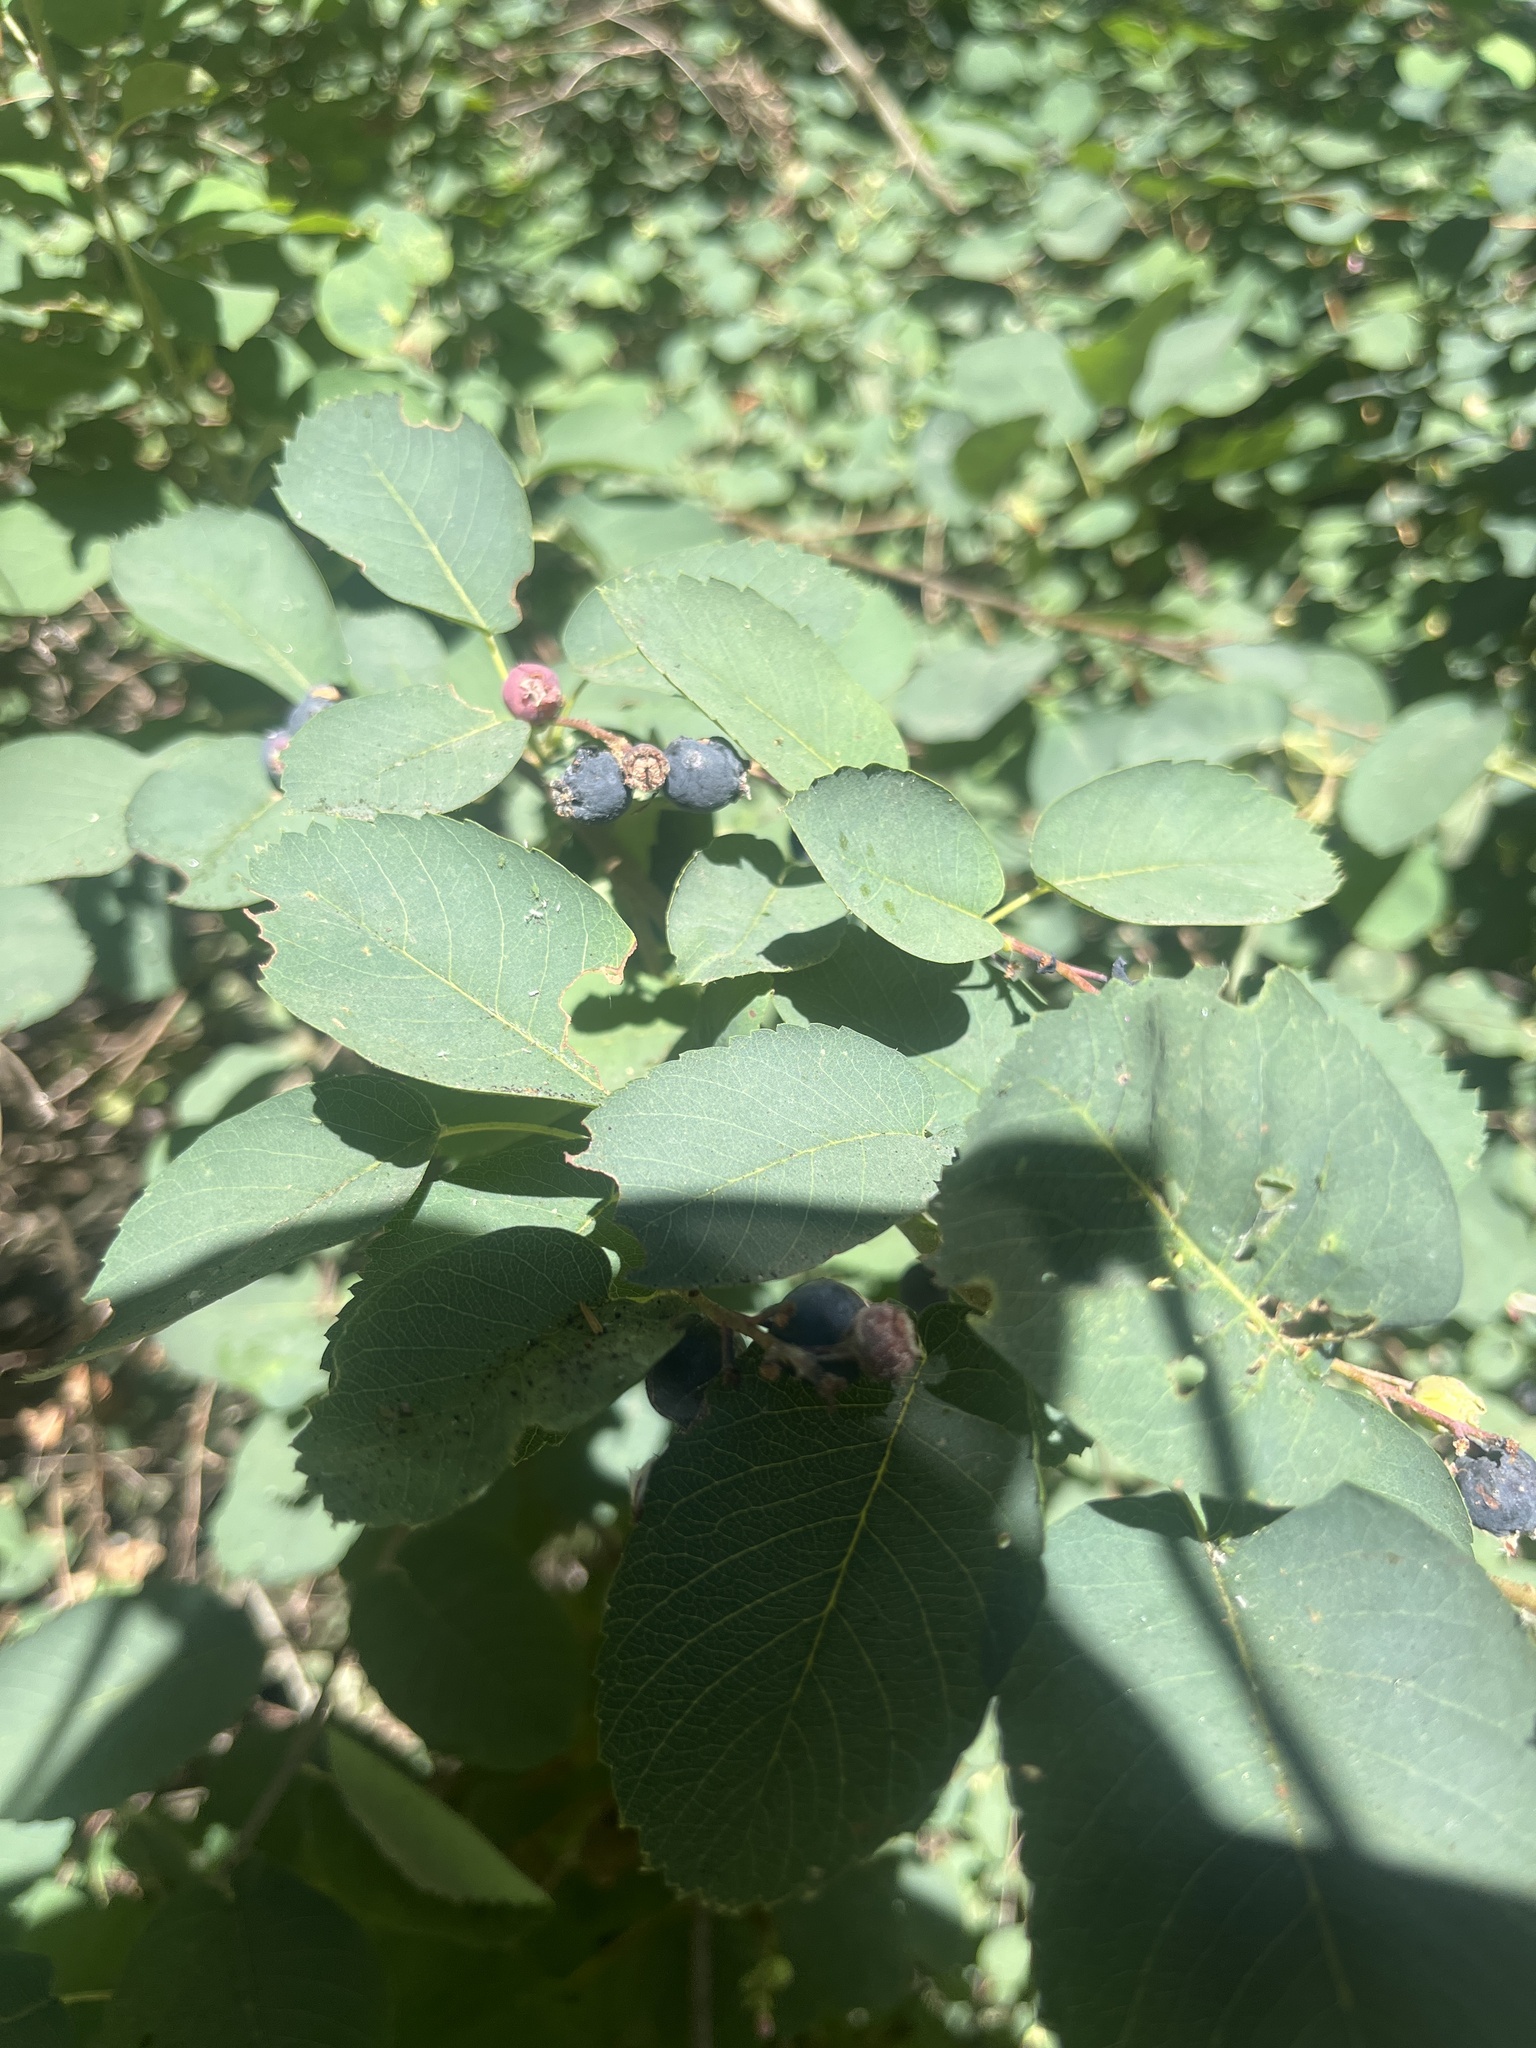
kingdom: Plantae
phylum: Tracheophyta
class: Magnoliopsida
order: Rosales
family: Rosaceae
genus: Amelanchier
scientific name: Amelanchier alnifolia
